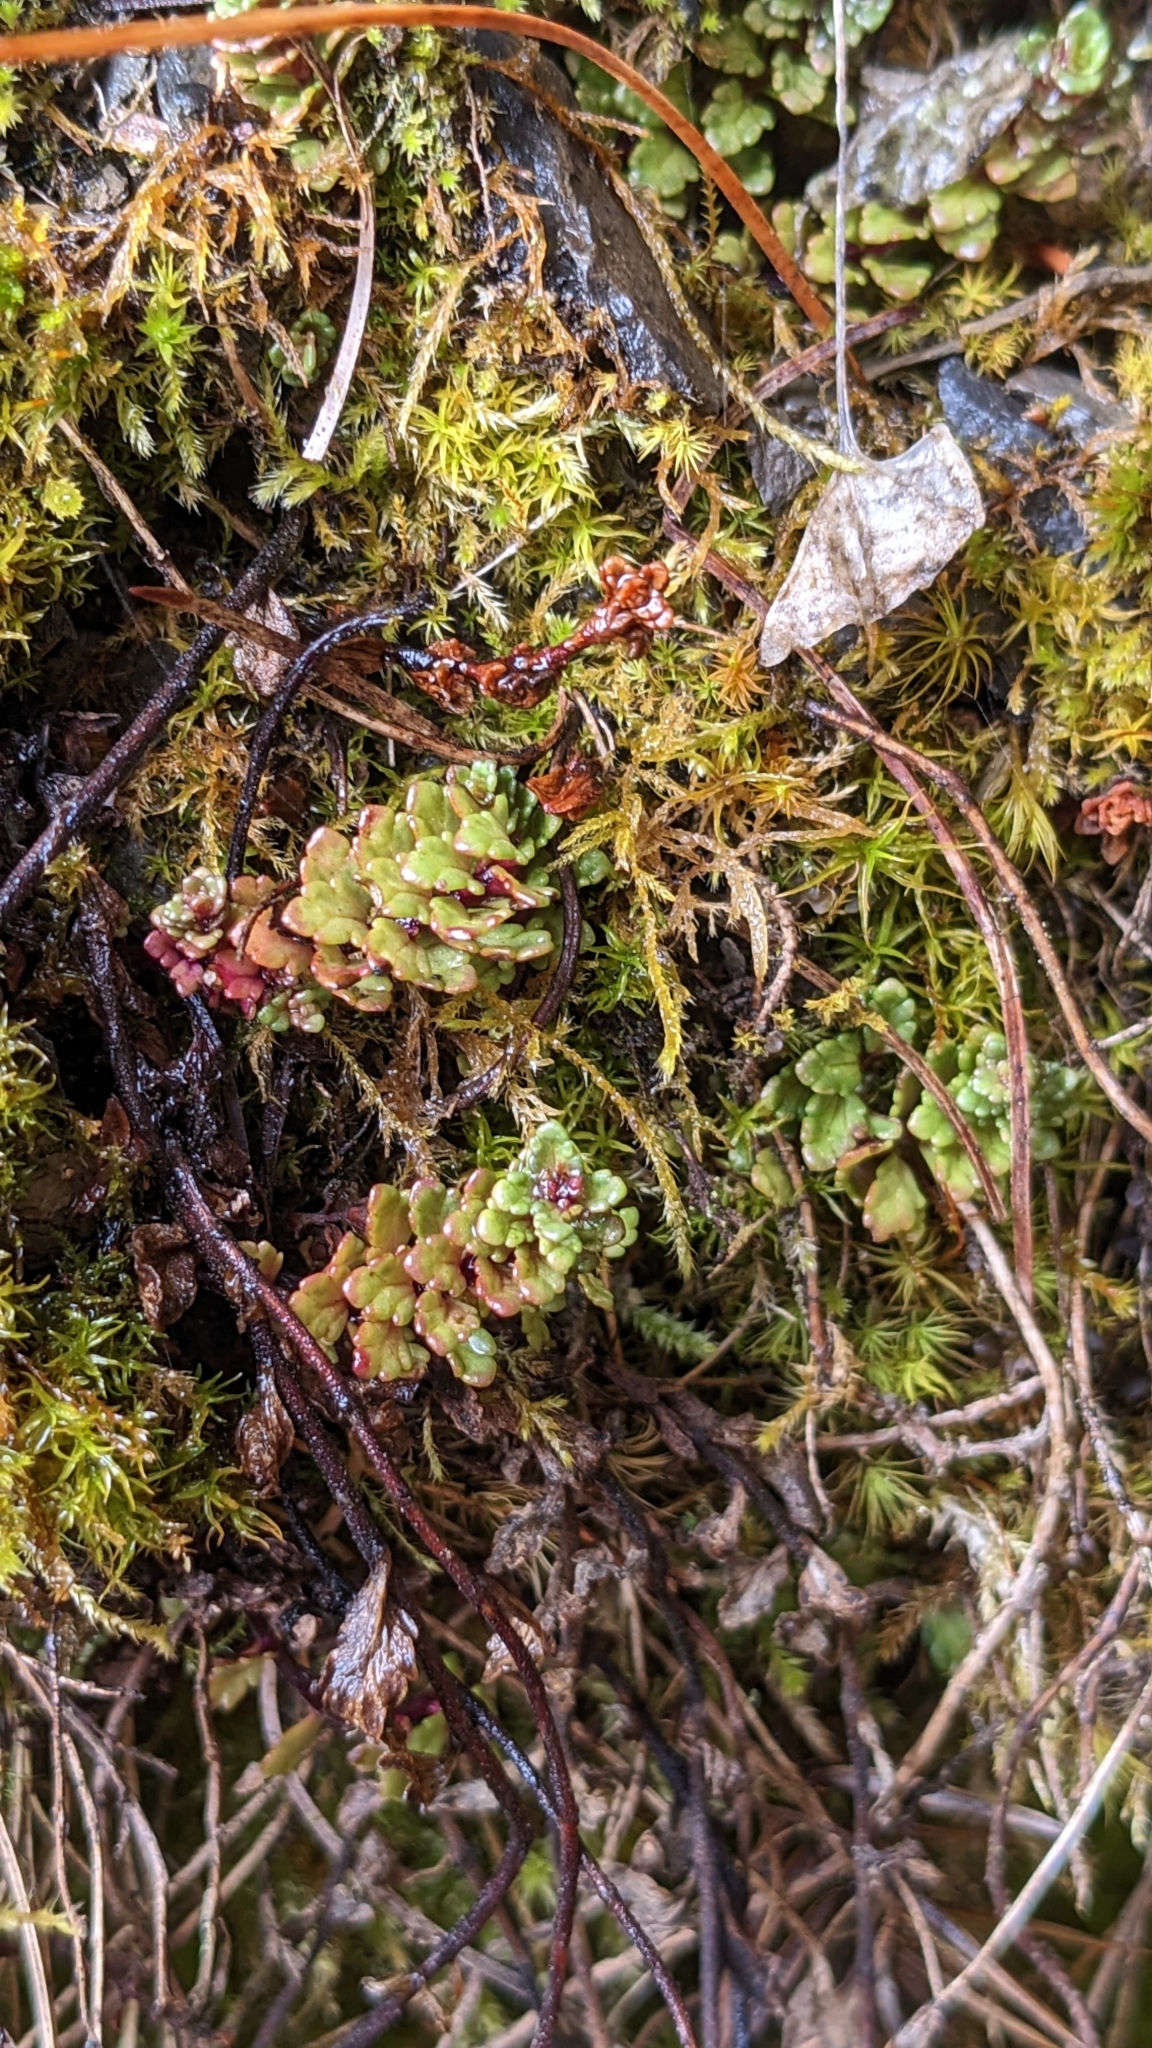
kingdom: Plantae
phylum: Tracheophyta
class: Magnoliopsida
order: Lamiales
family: Orobanchaceae
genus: Euphrasia
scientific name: Euphrasia transmorrisonensis
